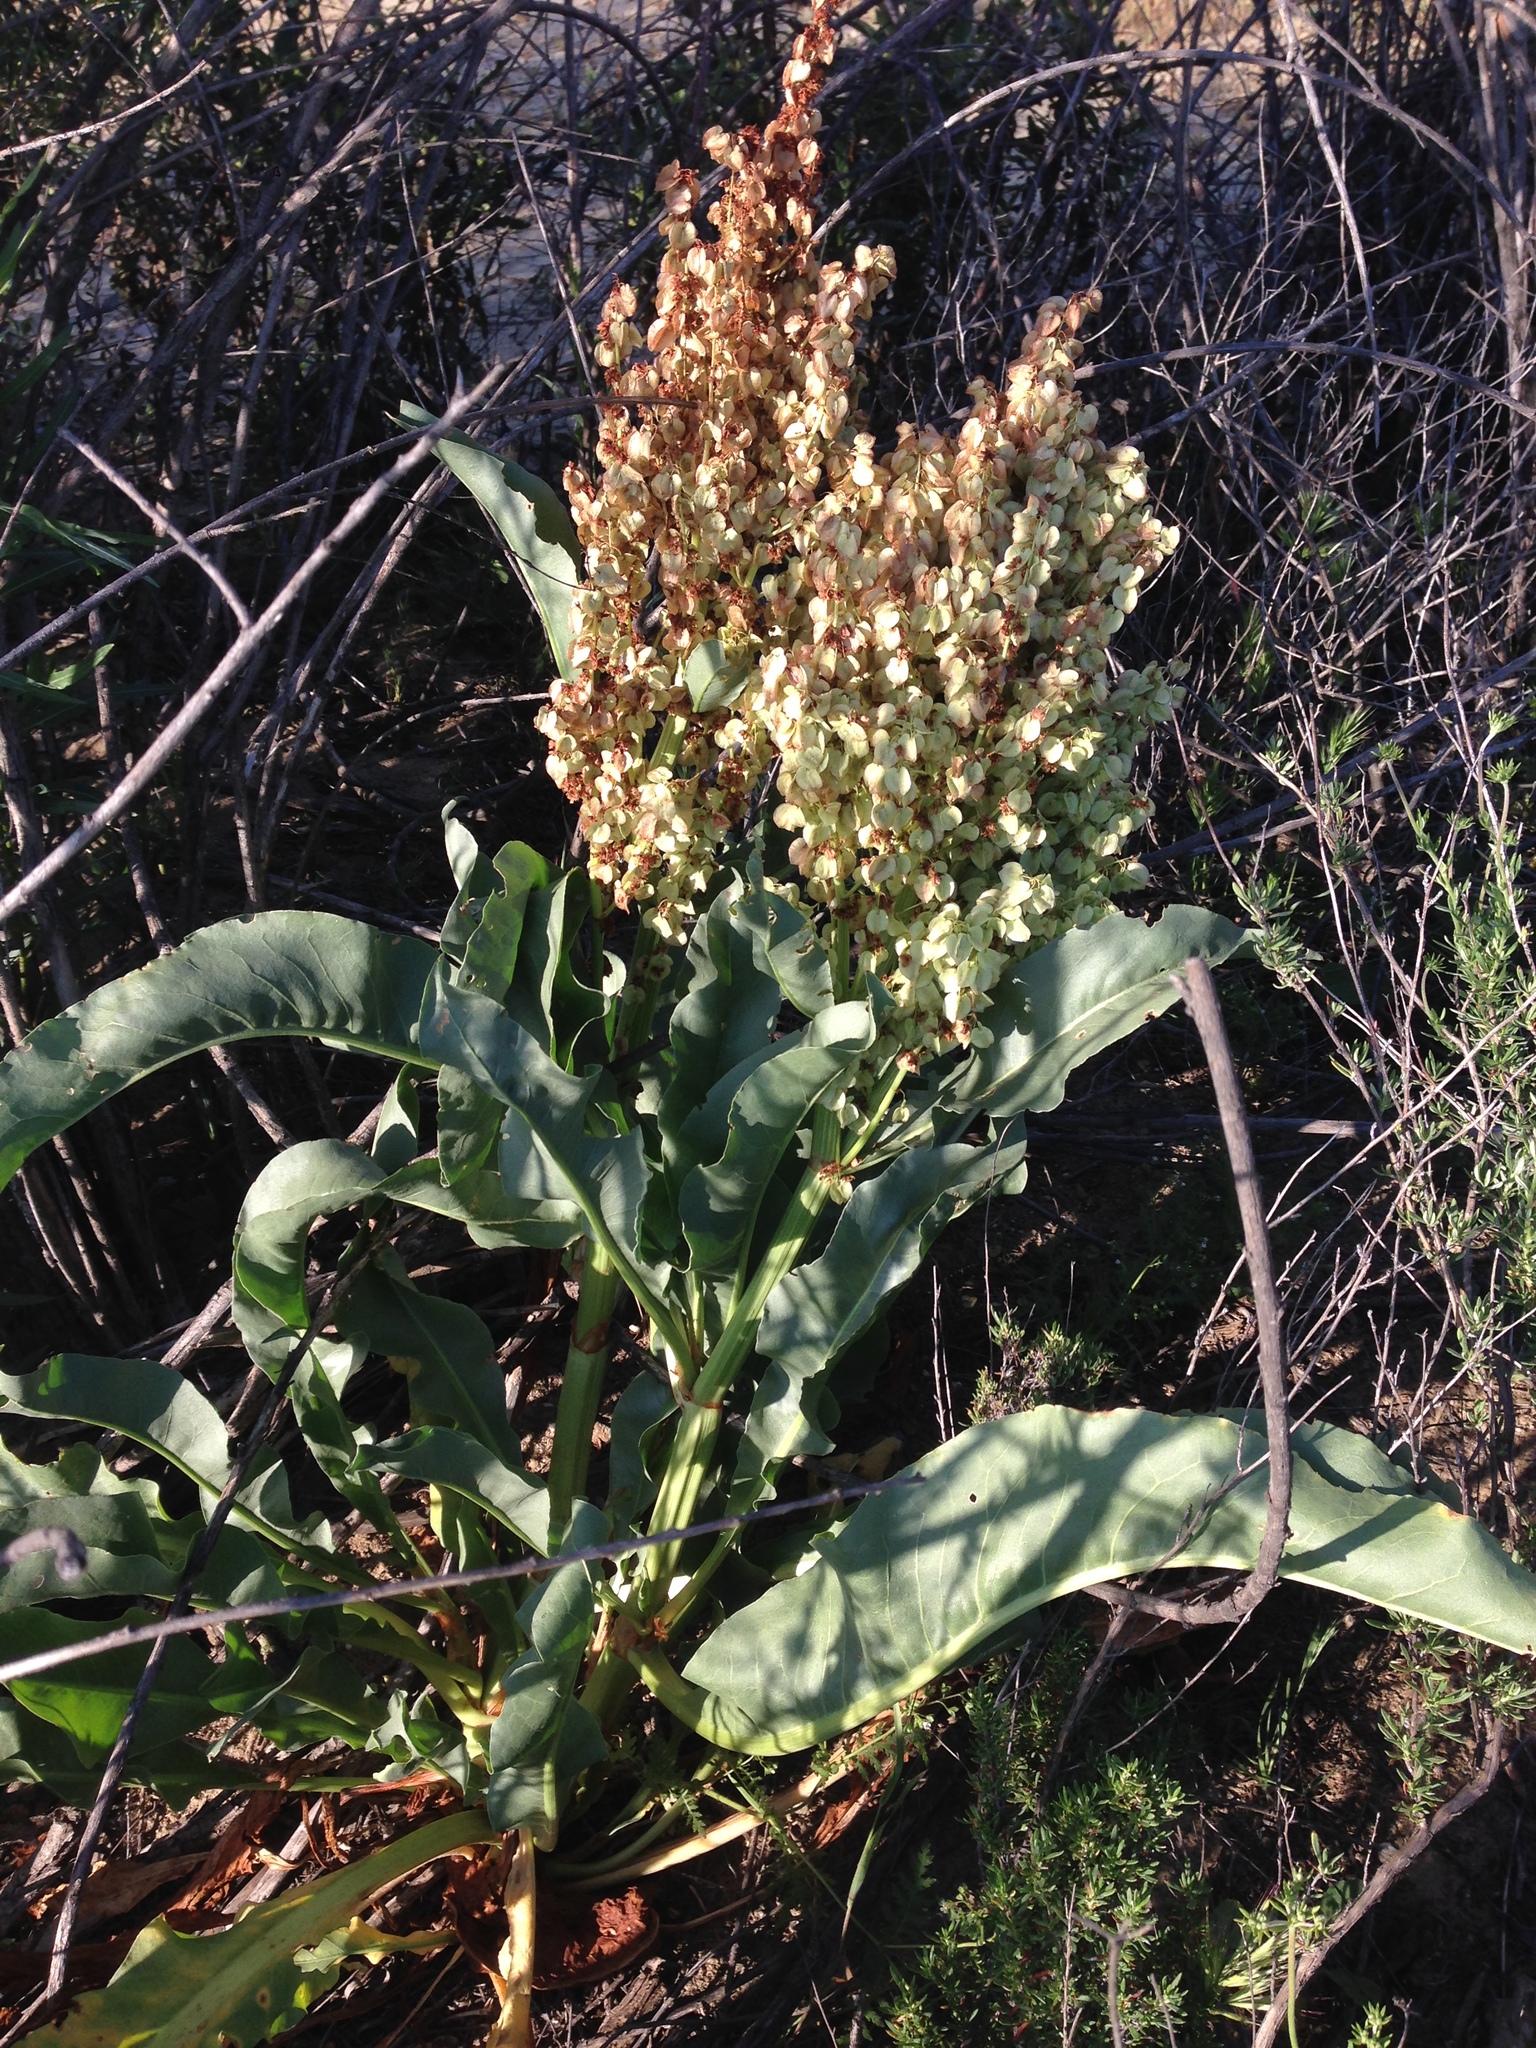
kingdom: Plantae
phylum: Tracheophyta
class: Magnoliopsida
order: Caryophyllales
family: Polygonaceae
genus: Rumex
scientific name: Rumex hymenosepalus
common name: Ganagra
